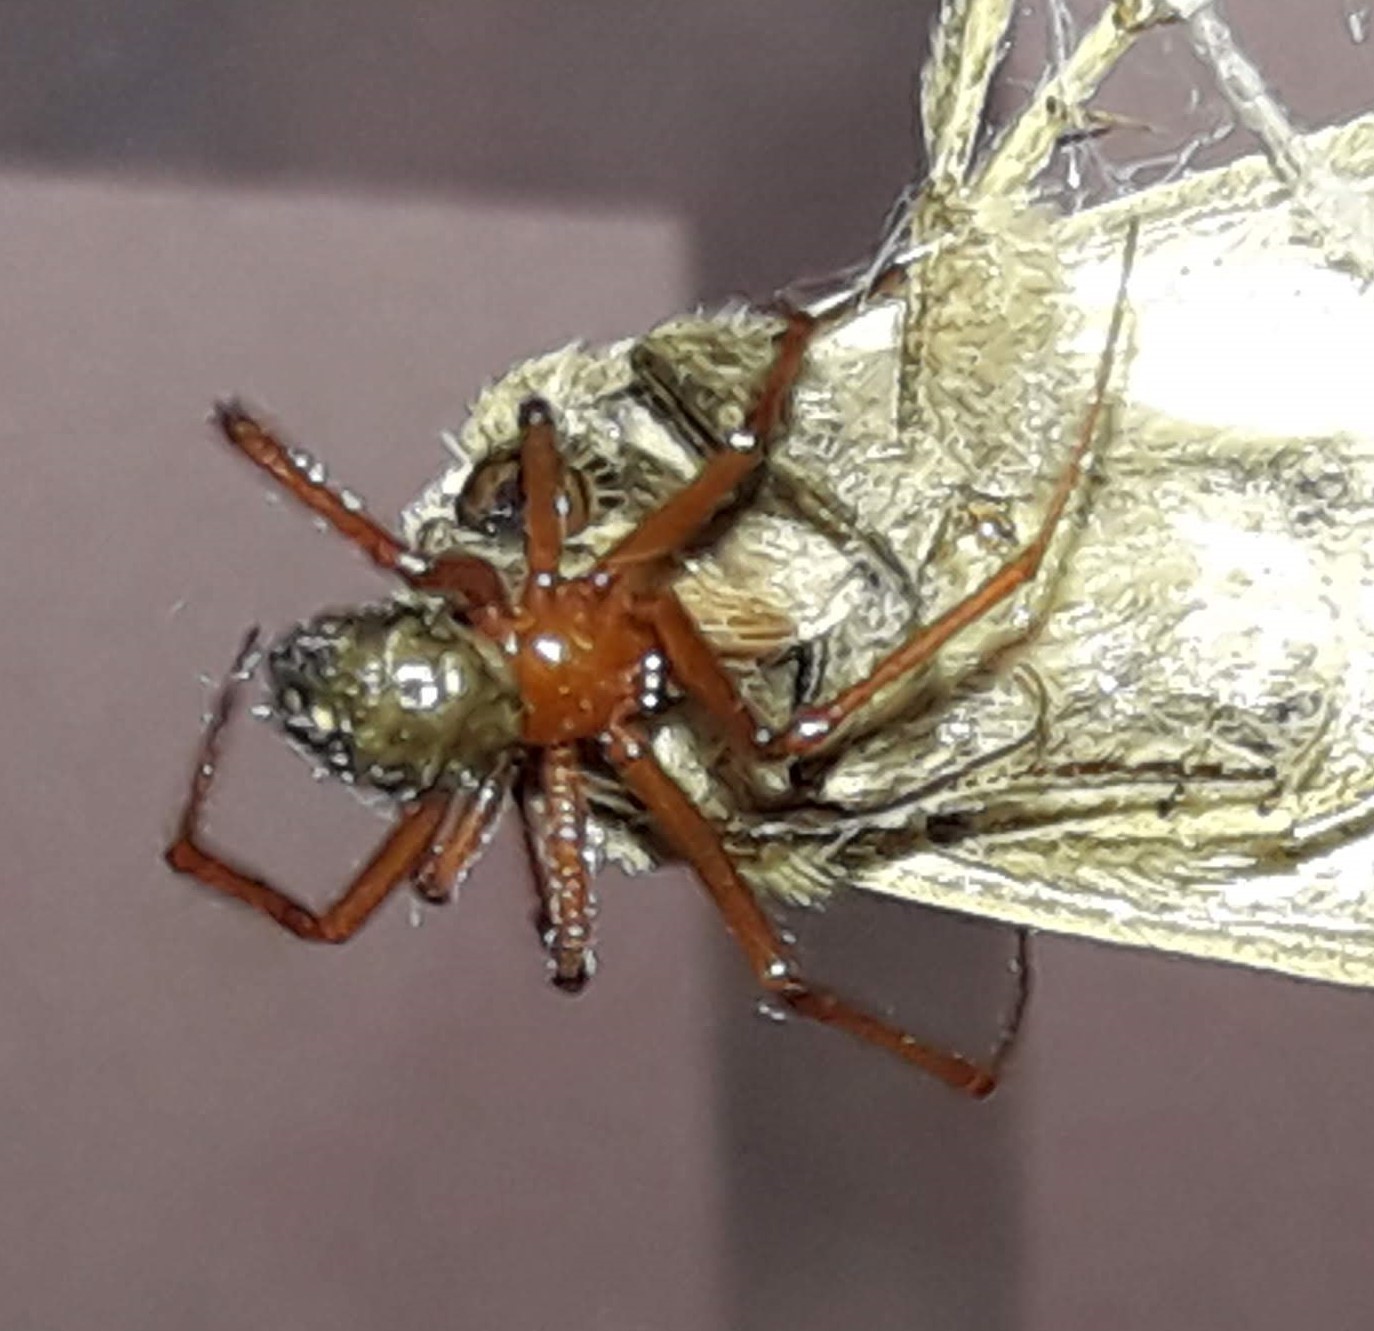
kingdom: Animalia
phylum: Arthropoda
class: Arachnida
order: Araneae
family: Theridiidae
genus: Nesticodes
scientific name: Nesticodes rufipes
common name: Cobweb spiders
